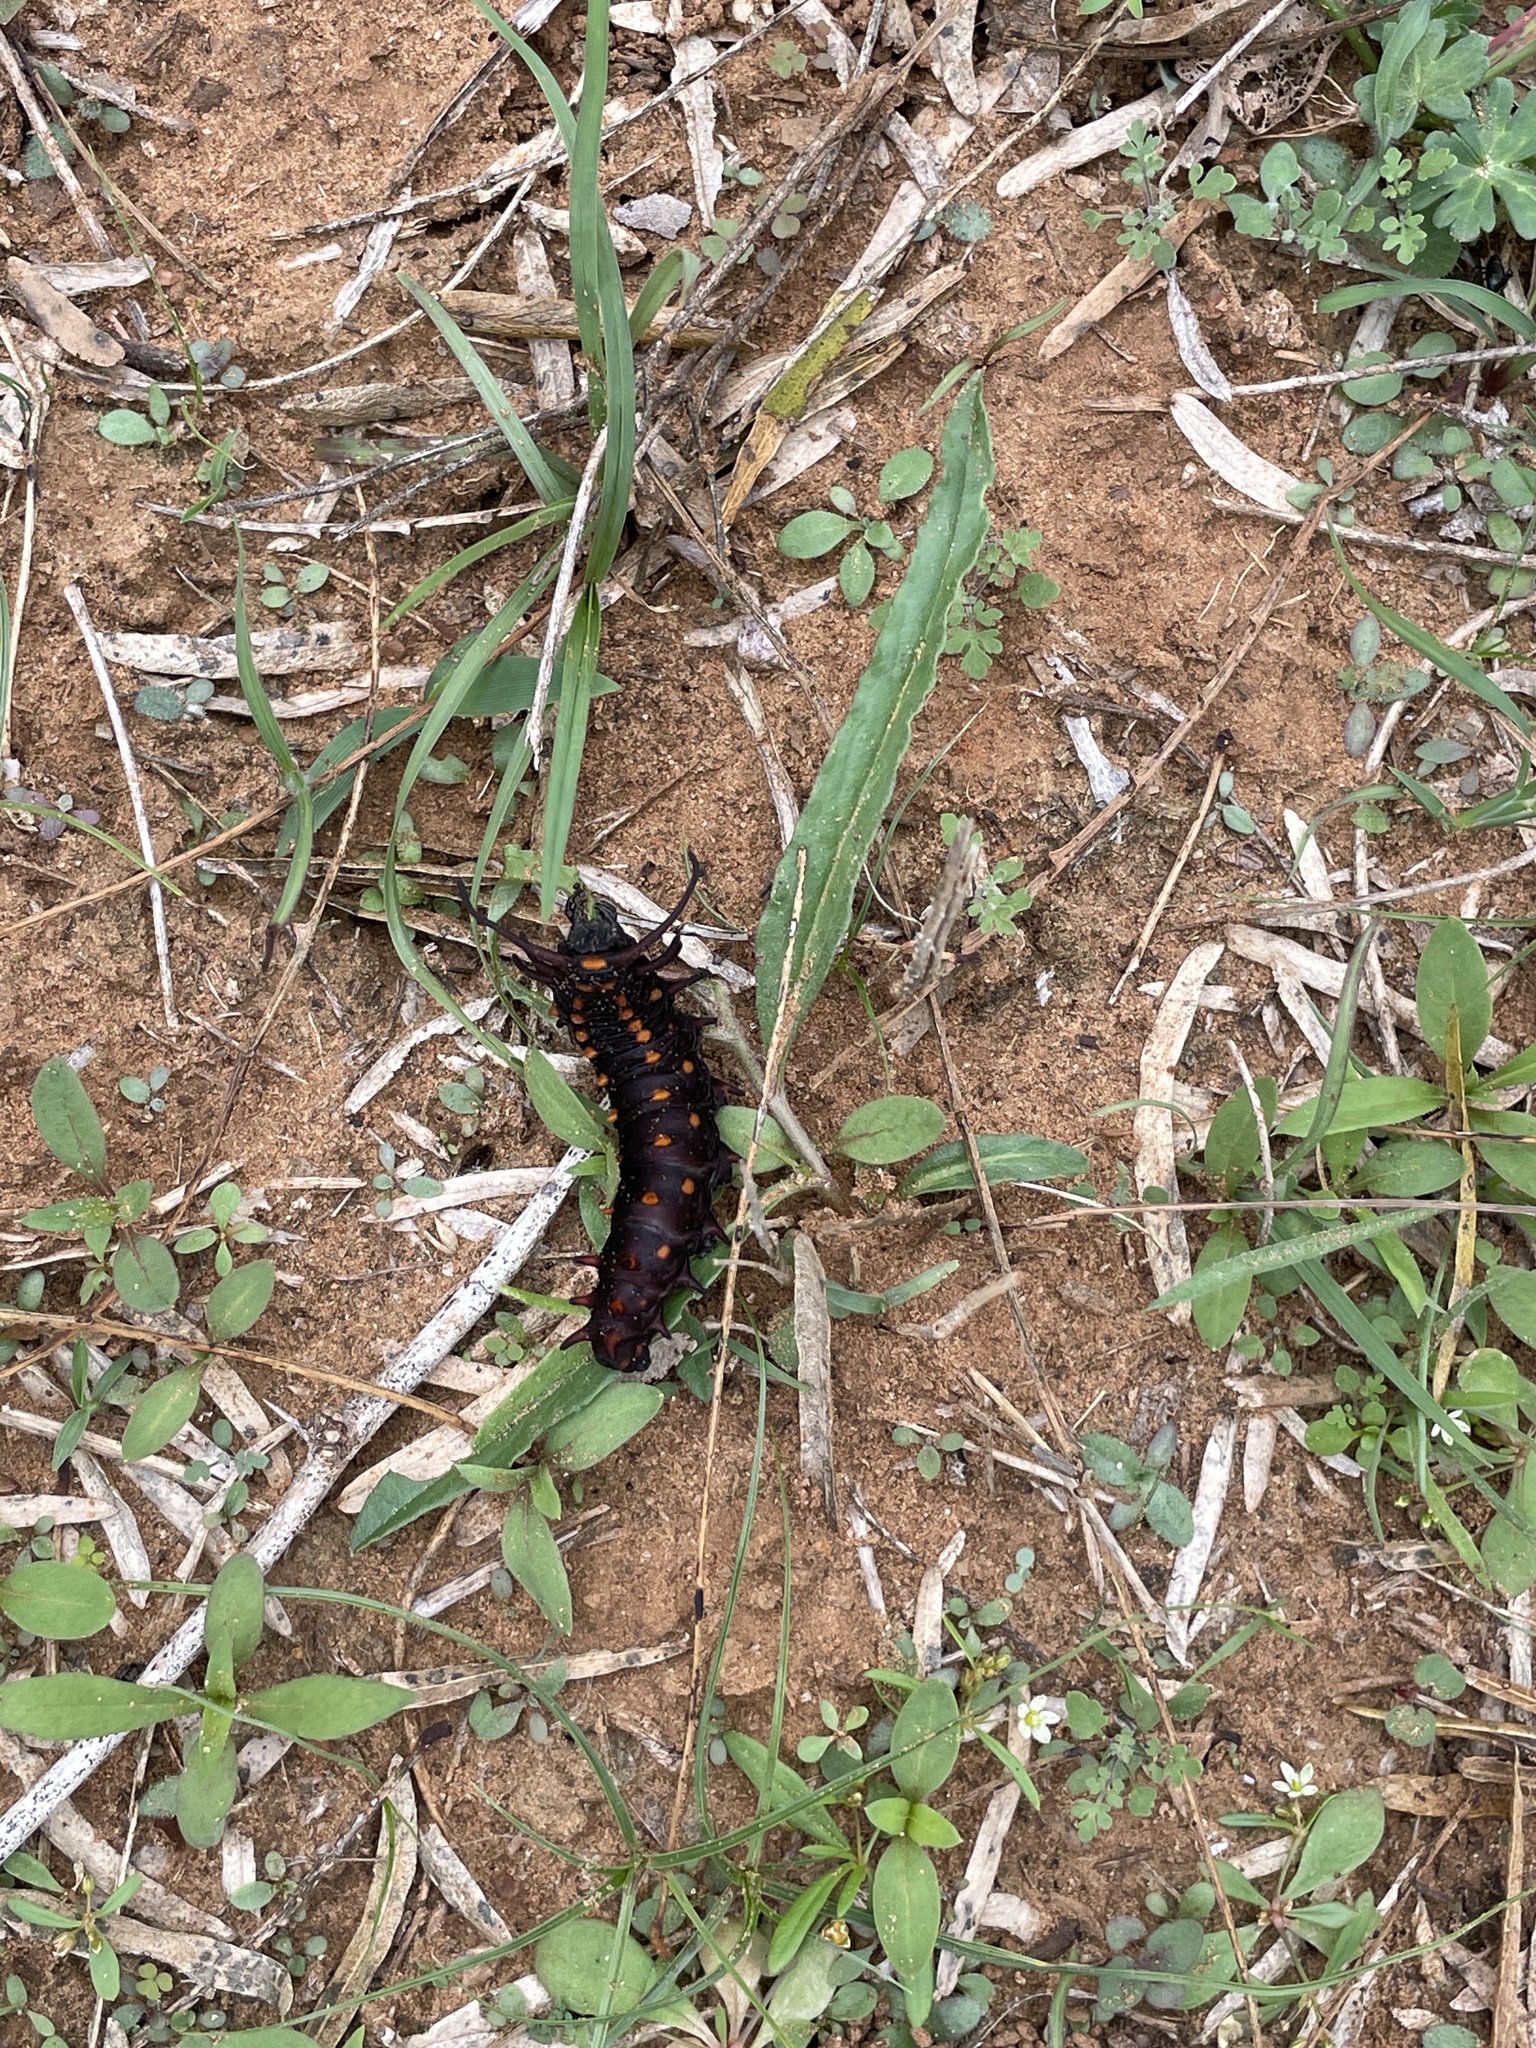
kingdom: Animalia
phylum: Arthropoda
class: Insecta
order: Lepidoptera
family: Papilionidae
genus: Battus
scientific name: Battus philenor
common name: Pipevine swallowtail
